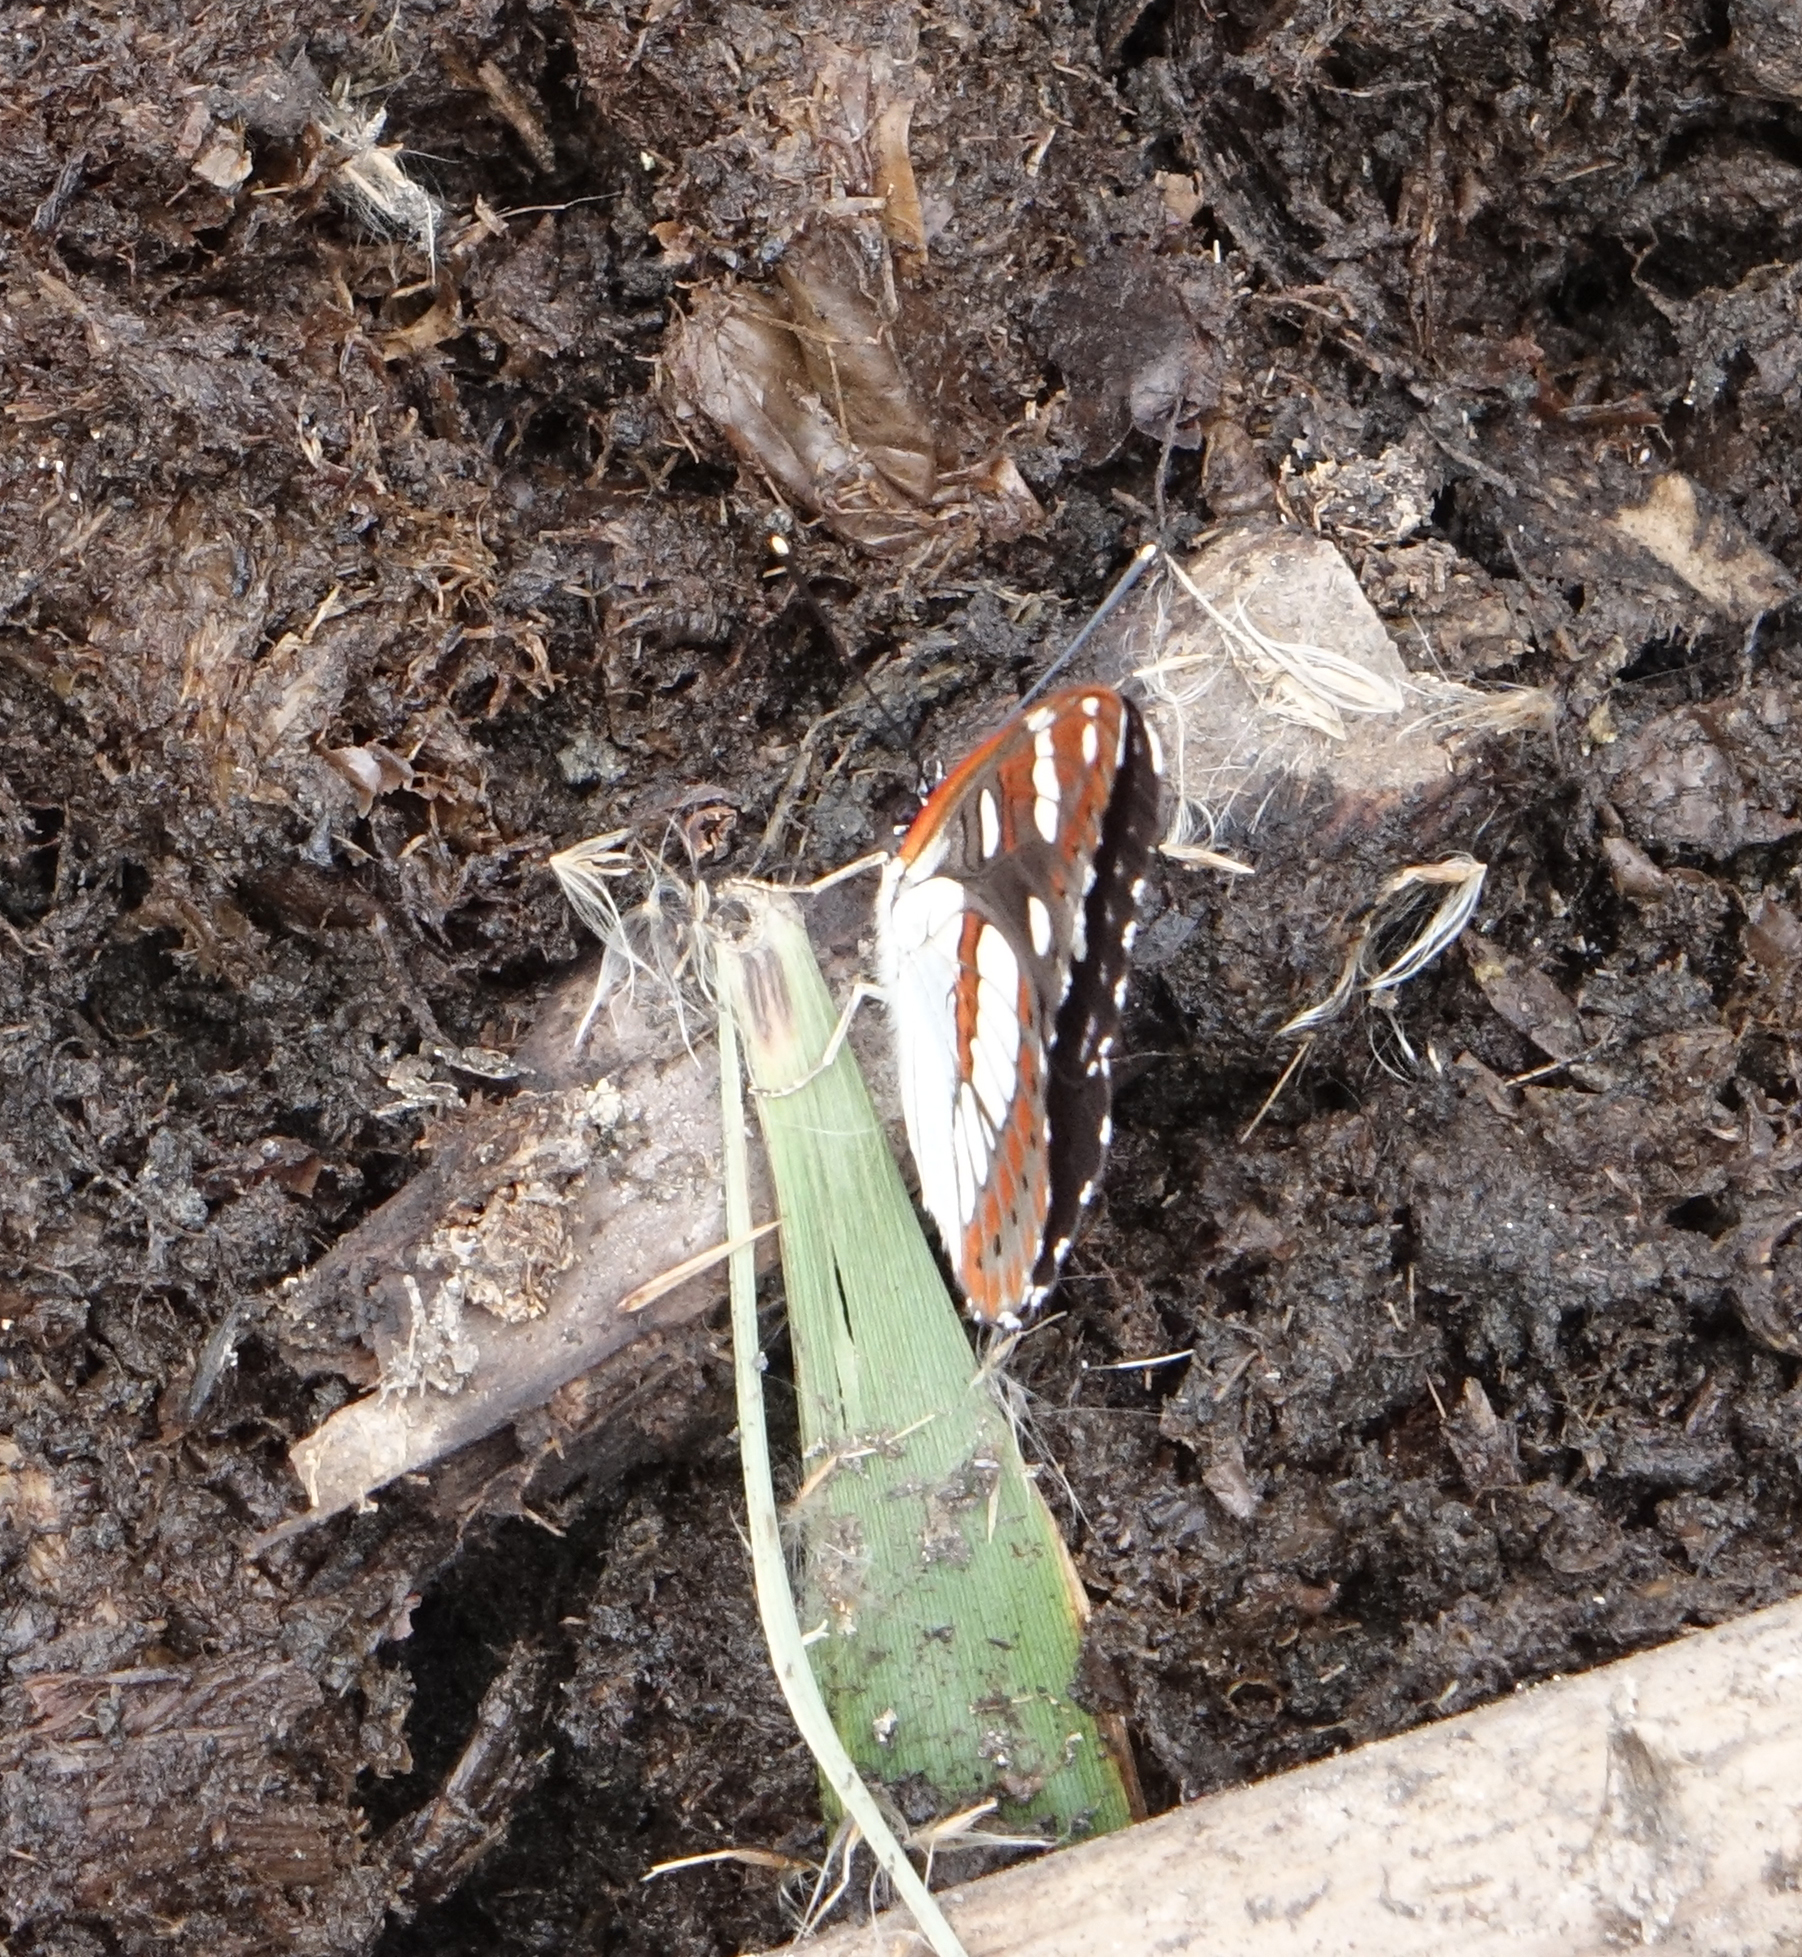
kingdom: Animalia
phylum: Arthropoda
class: Insecta
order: Lepidoptera
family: Nymphalidae
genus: Limenitis
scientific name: Limenitis reducta
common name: Southern white admiral
